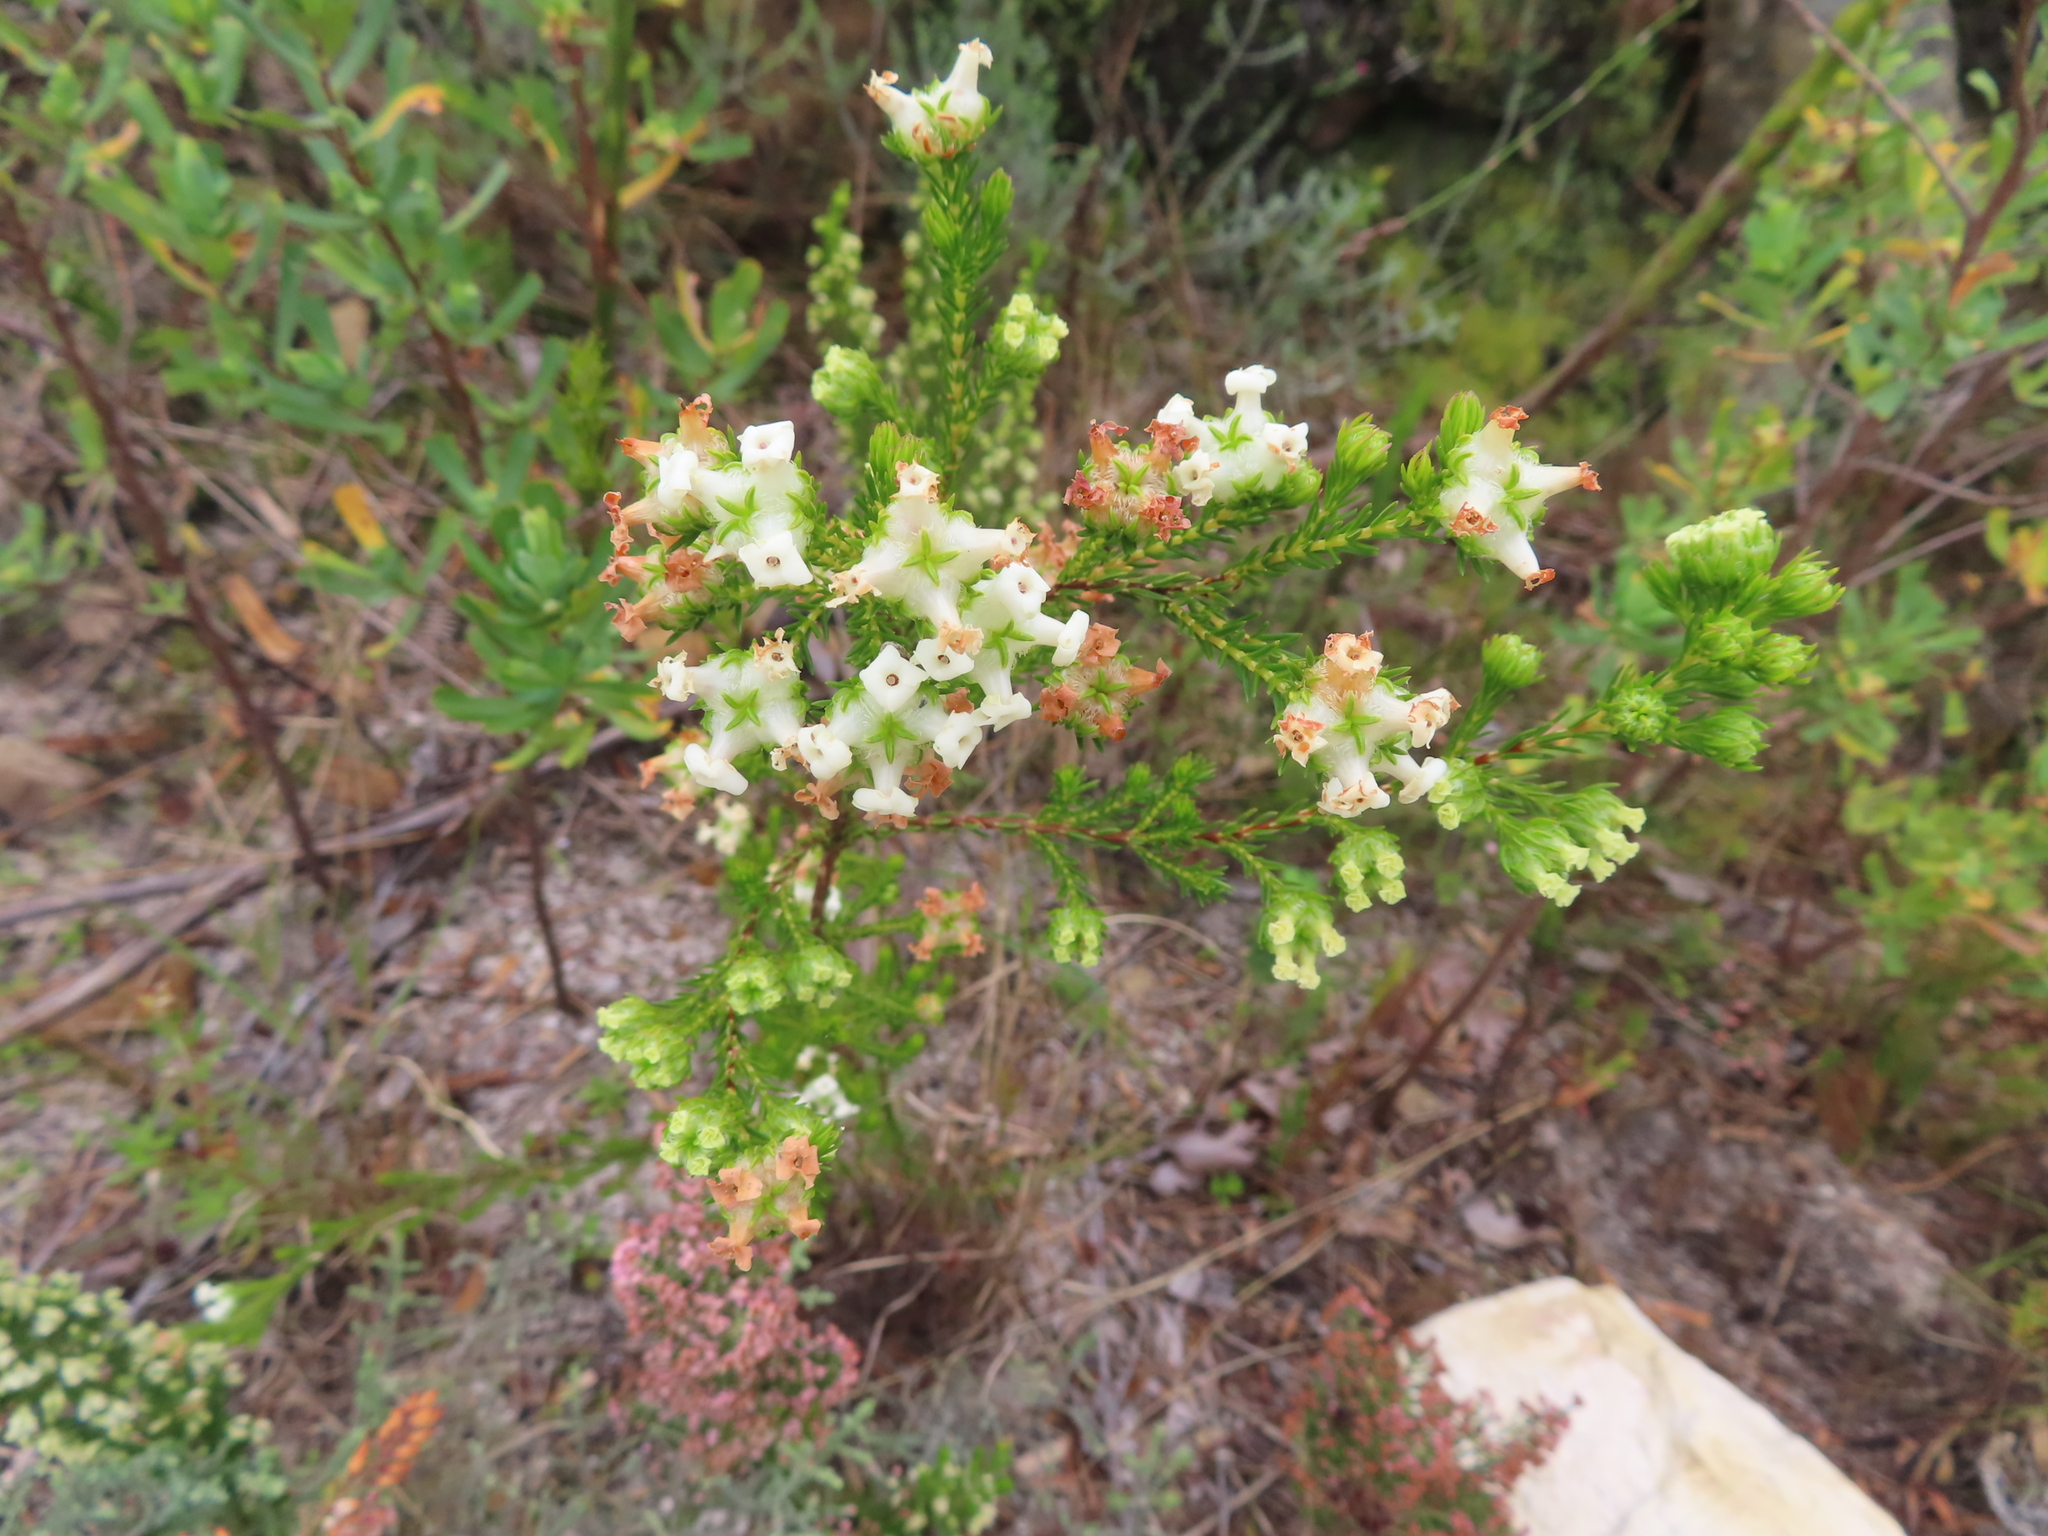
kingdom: Plantae
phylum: Tracheophyta
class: Magnoliopsida
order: Ericales
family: Ericaceae
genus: Erica
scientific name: Erica denticulata
